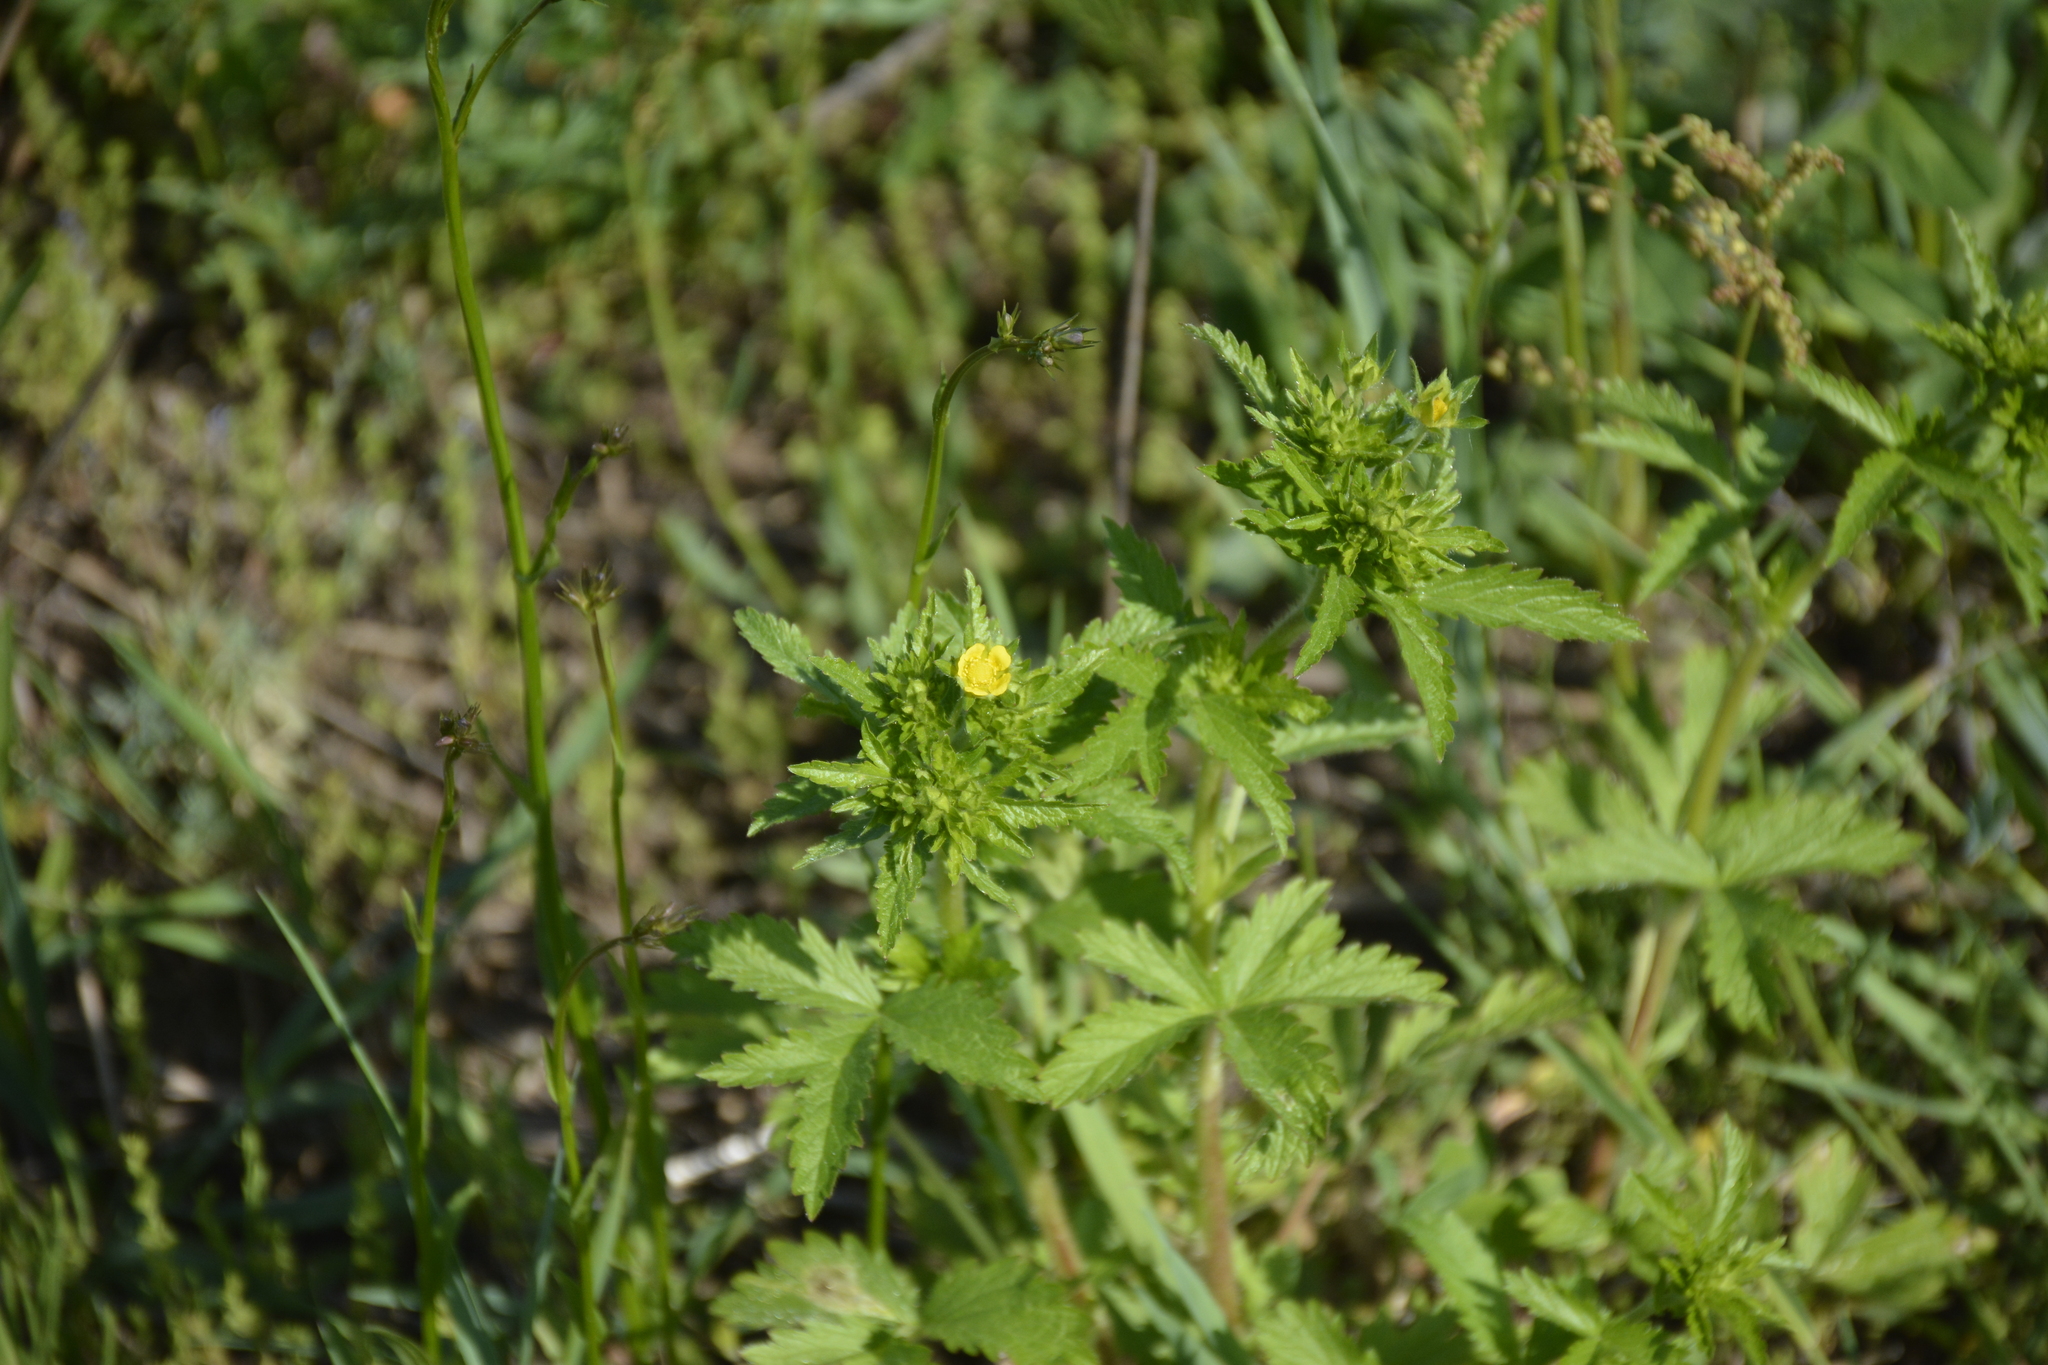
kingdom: Plantae
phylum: Tracheophyta
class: Magnoliopsida
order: Rosales
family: Rosaceae
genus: Potentilla
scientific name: Potentilla norvegica
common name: Ternate-leaved cinquefoil
